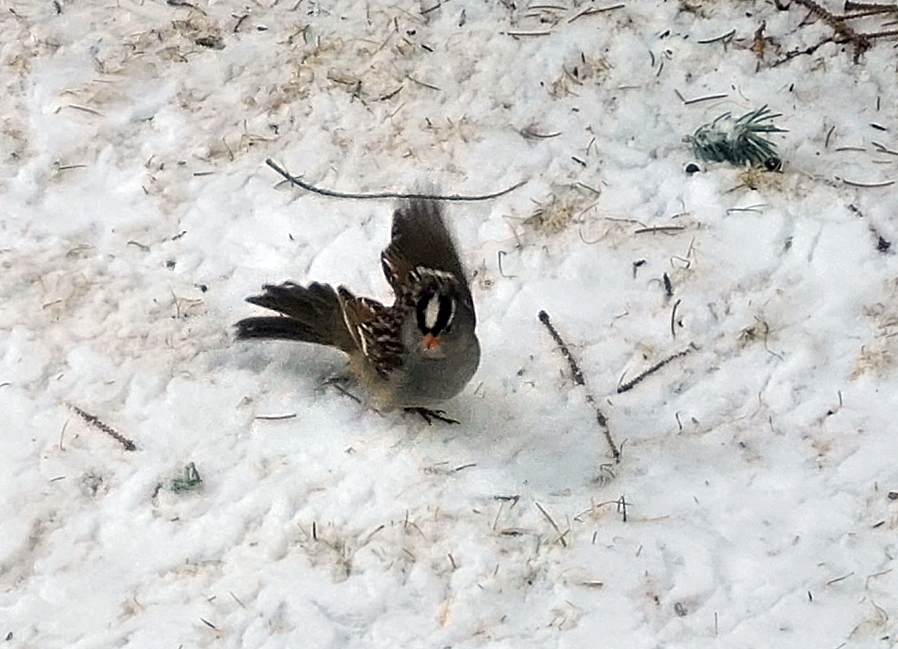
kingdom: Animalia
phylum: Chordata
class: Aves
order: Passeriformes
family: Passerellidae
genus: Zonotrichia
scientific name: Zonotrichia leucophrys
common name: White-crowned sparrow
